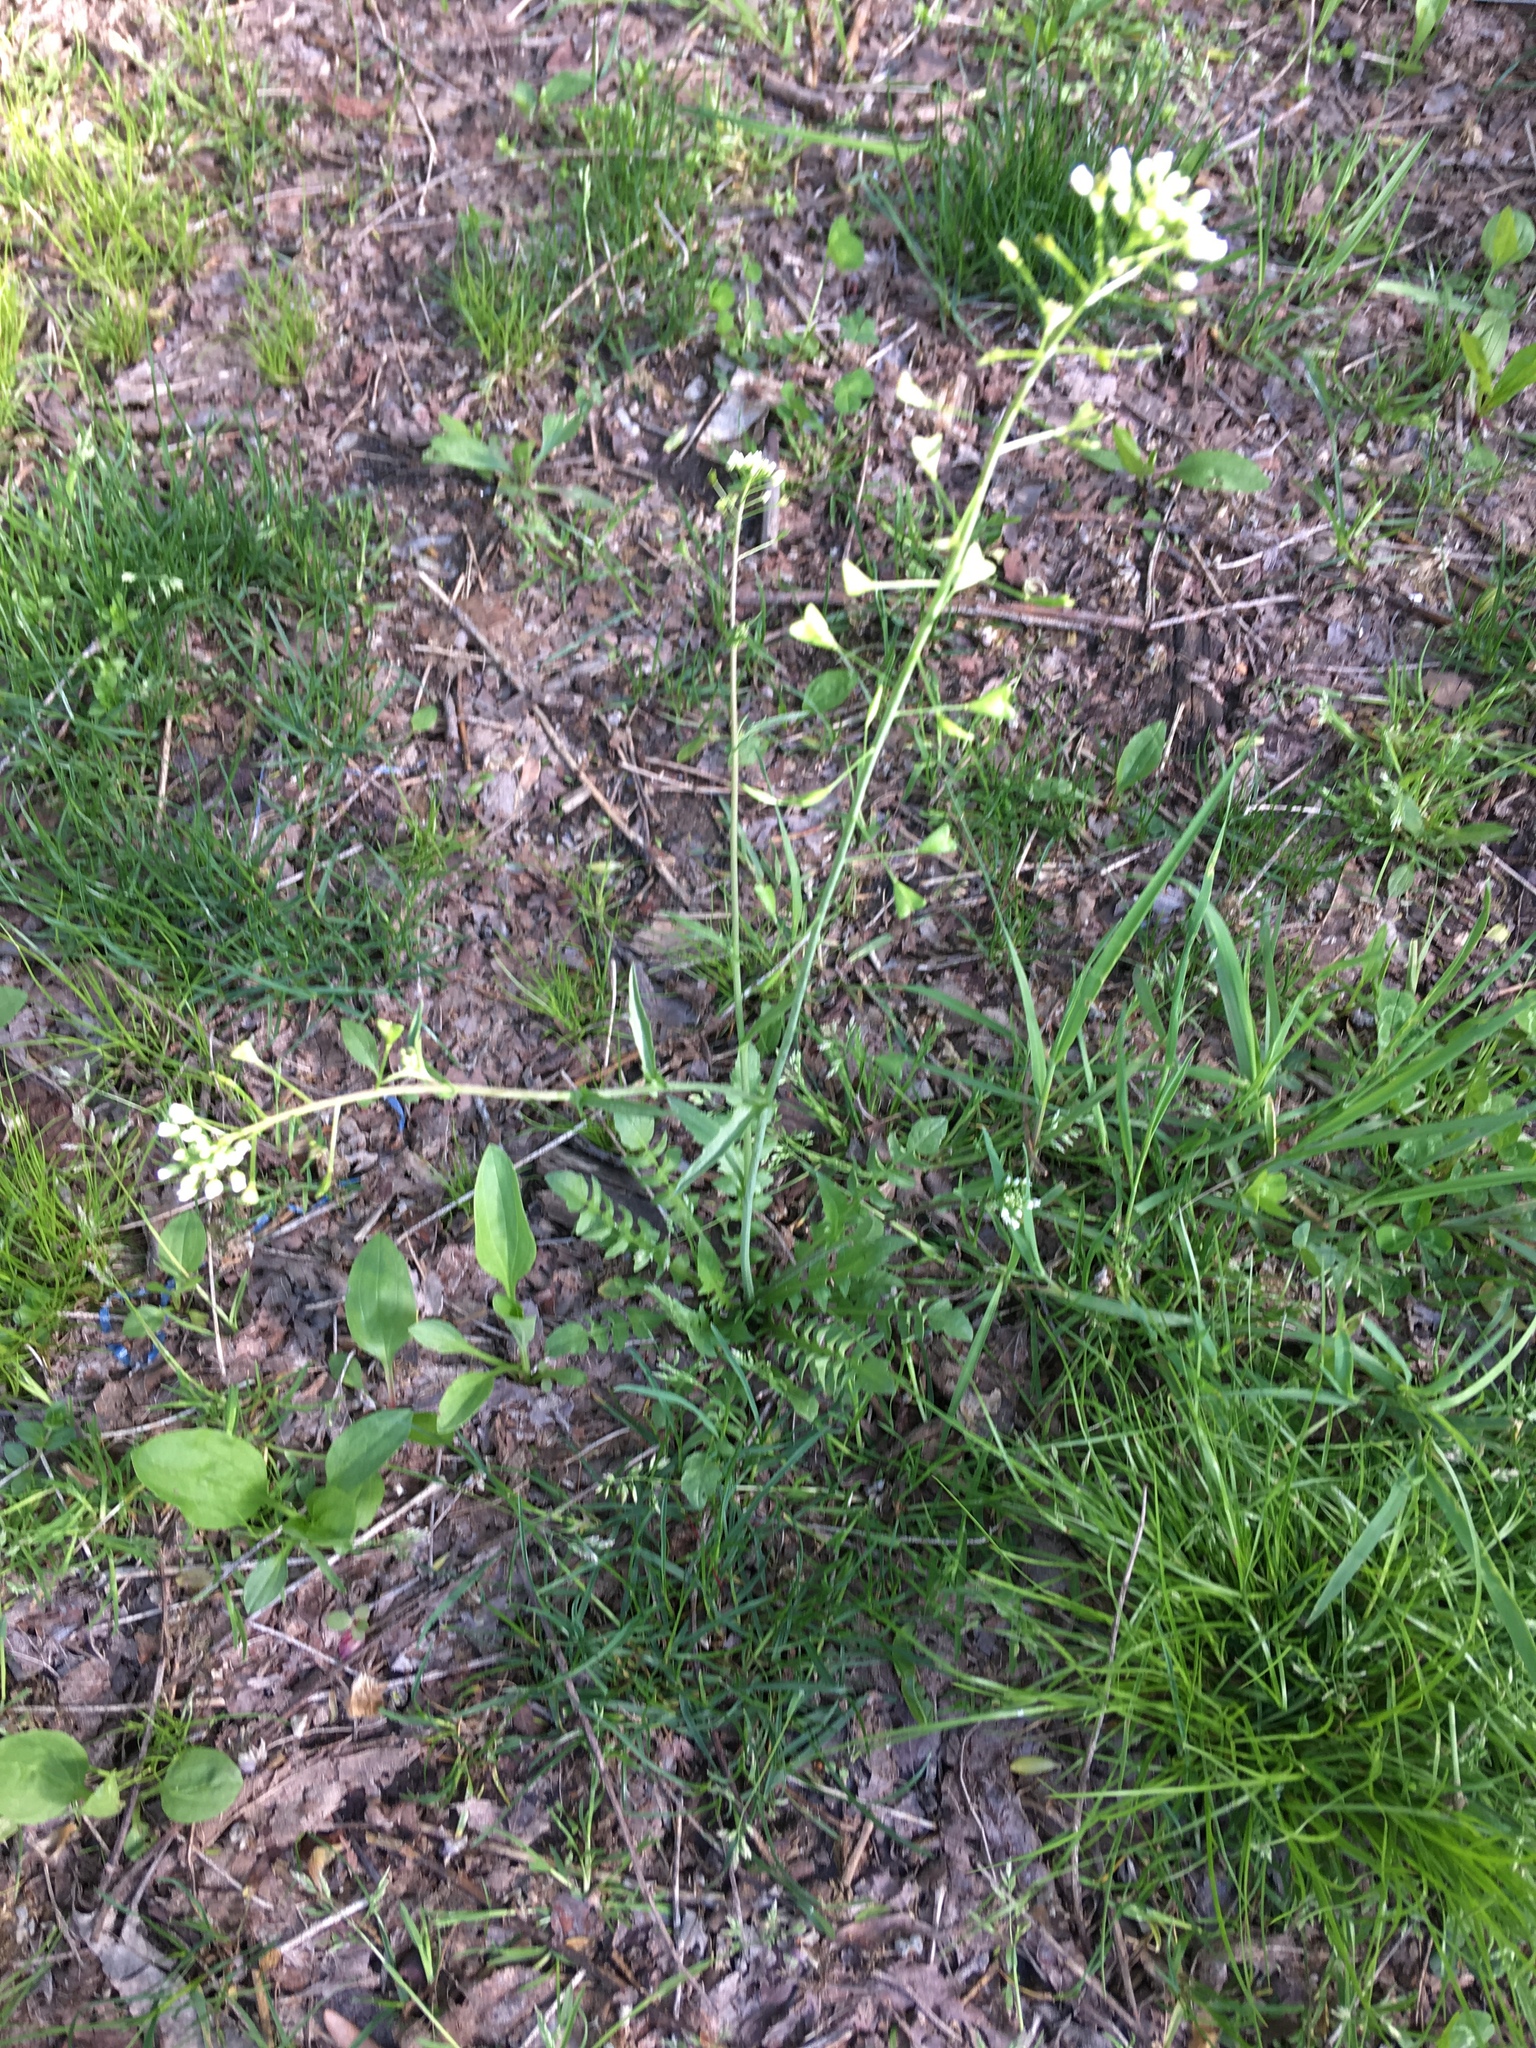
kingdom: Plantae
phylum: Tracheophyta
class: Magnoliopsida
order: Brassicales
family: Brassicaceae
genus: Capsella
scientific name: Capsella bursa-pastoris
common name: Shepherd's purse
